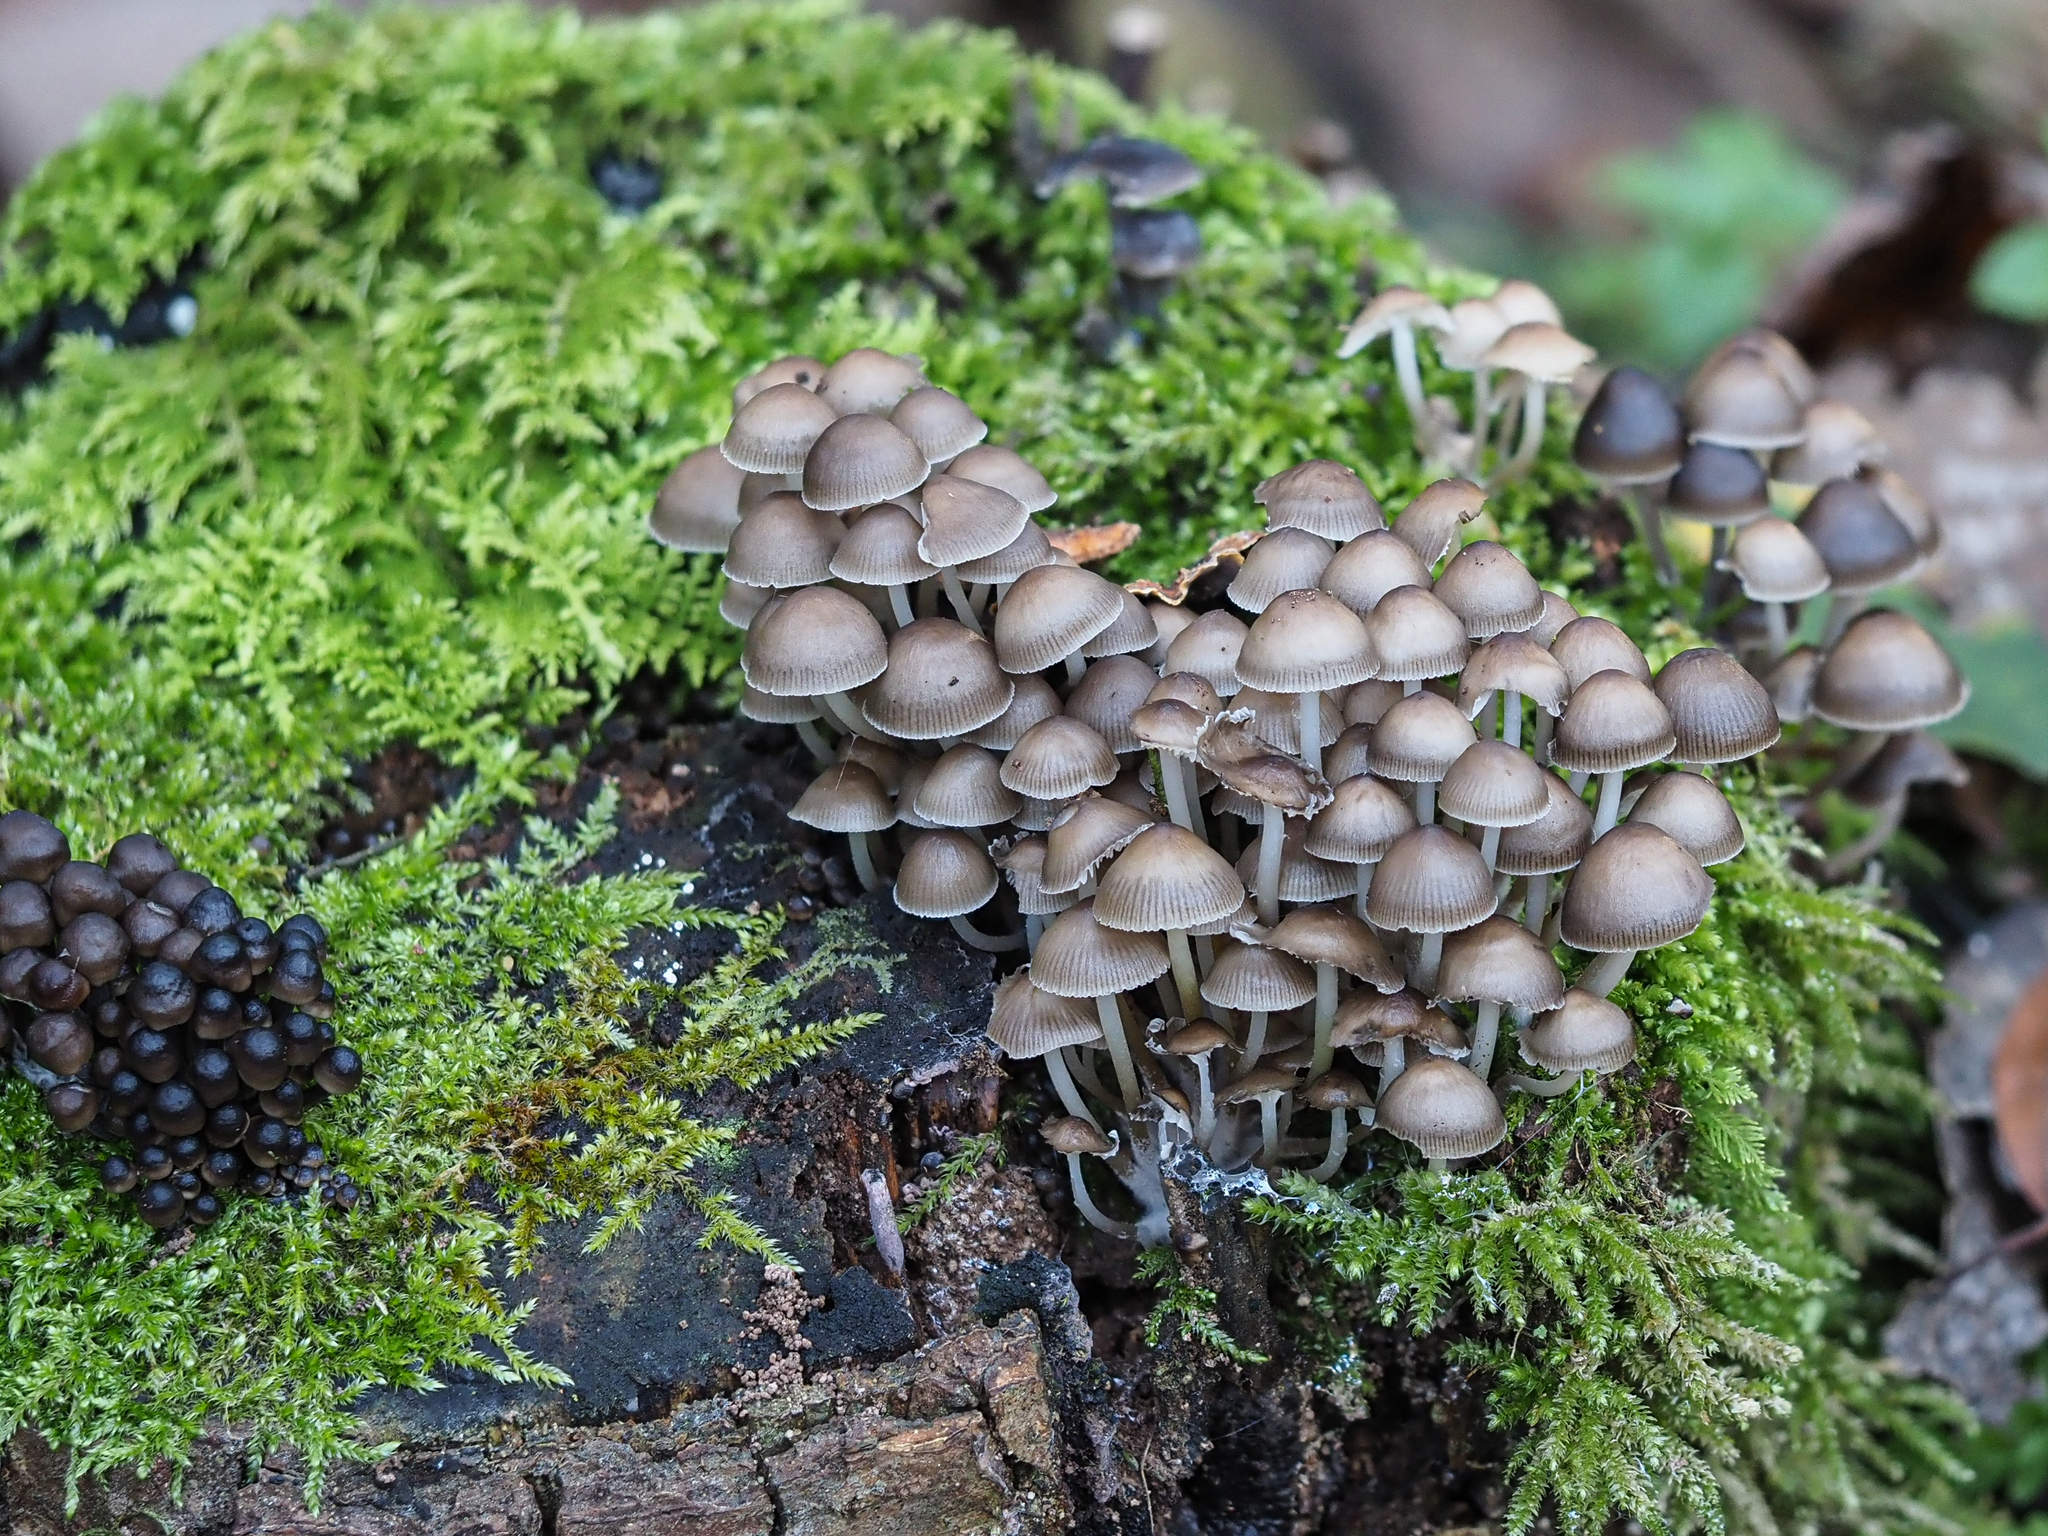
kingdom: Fungi
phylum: Basidiomycota
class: Agaricomycetes
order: Agaricales
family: Mycenaceae
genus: Mycena
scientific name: Mycena tintinnabulum
